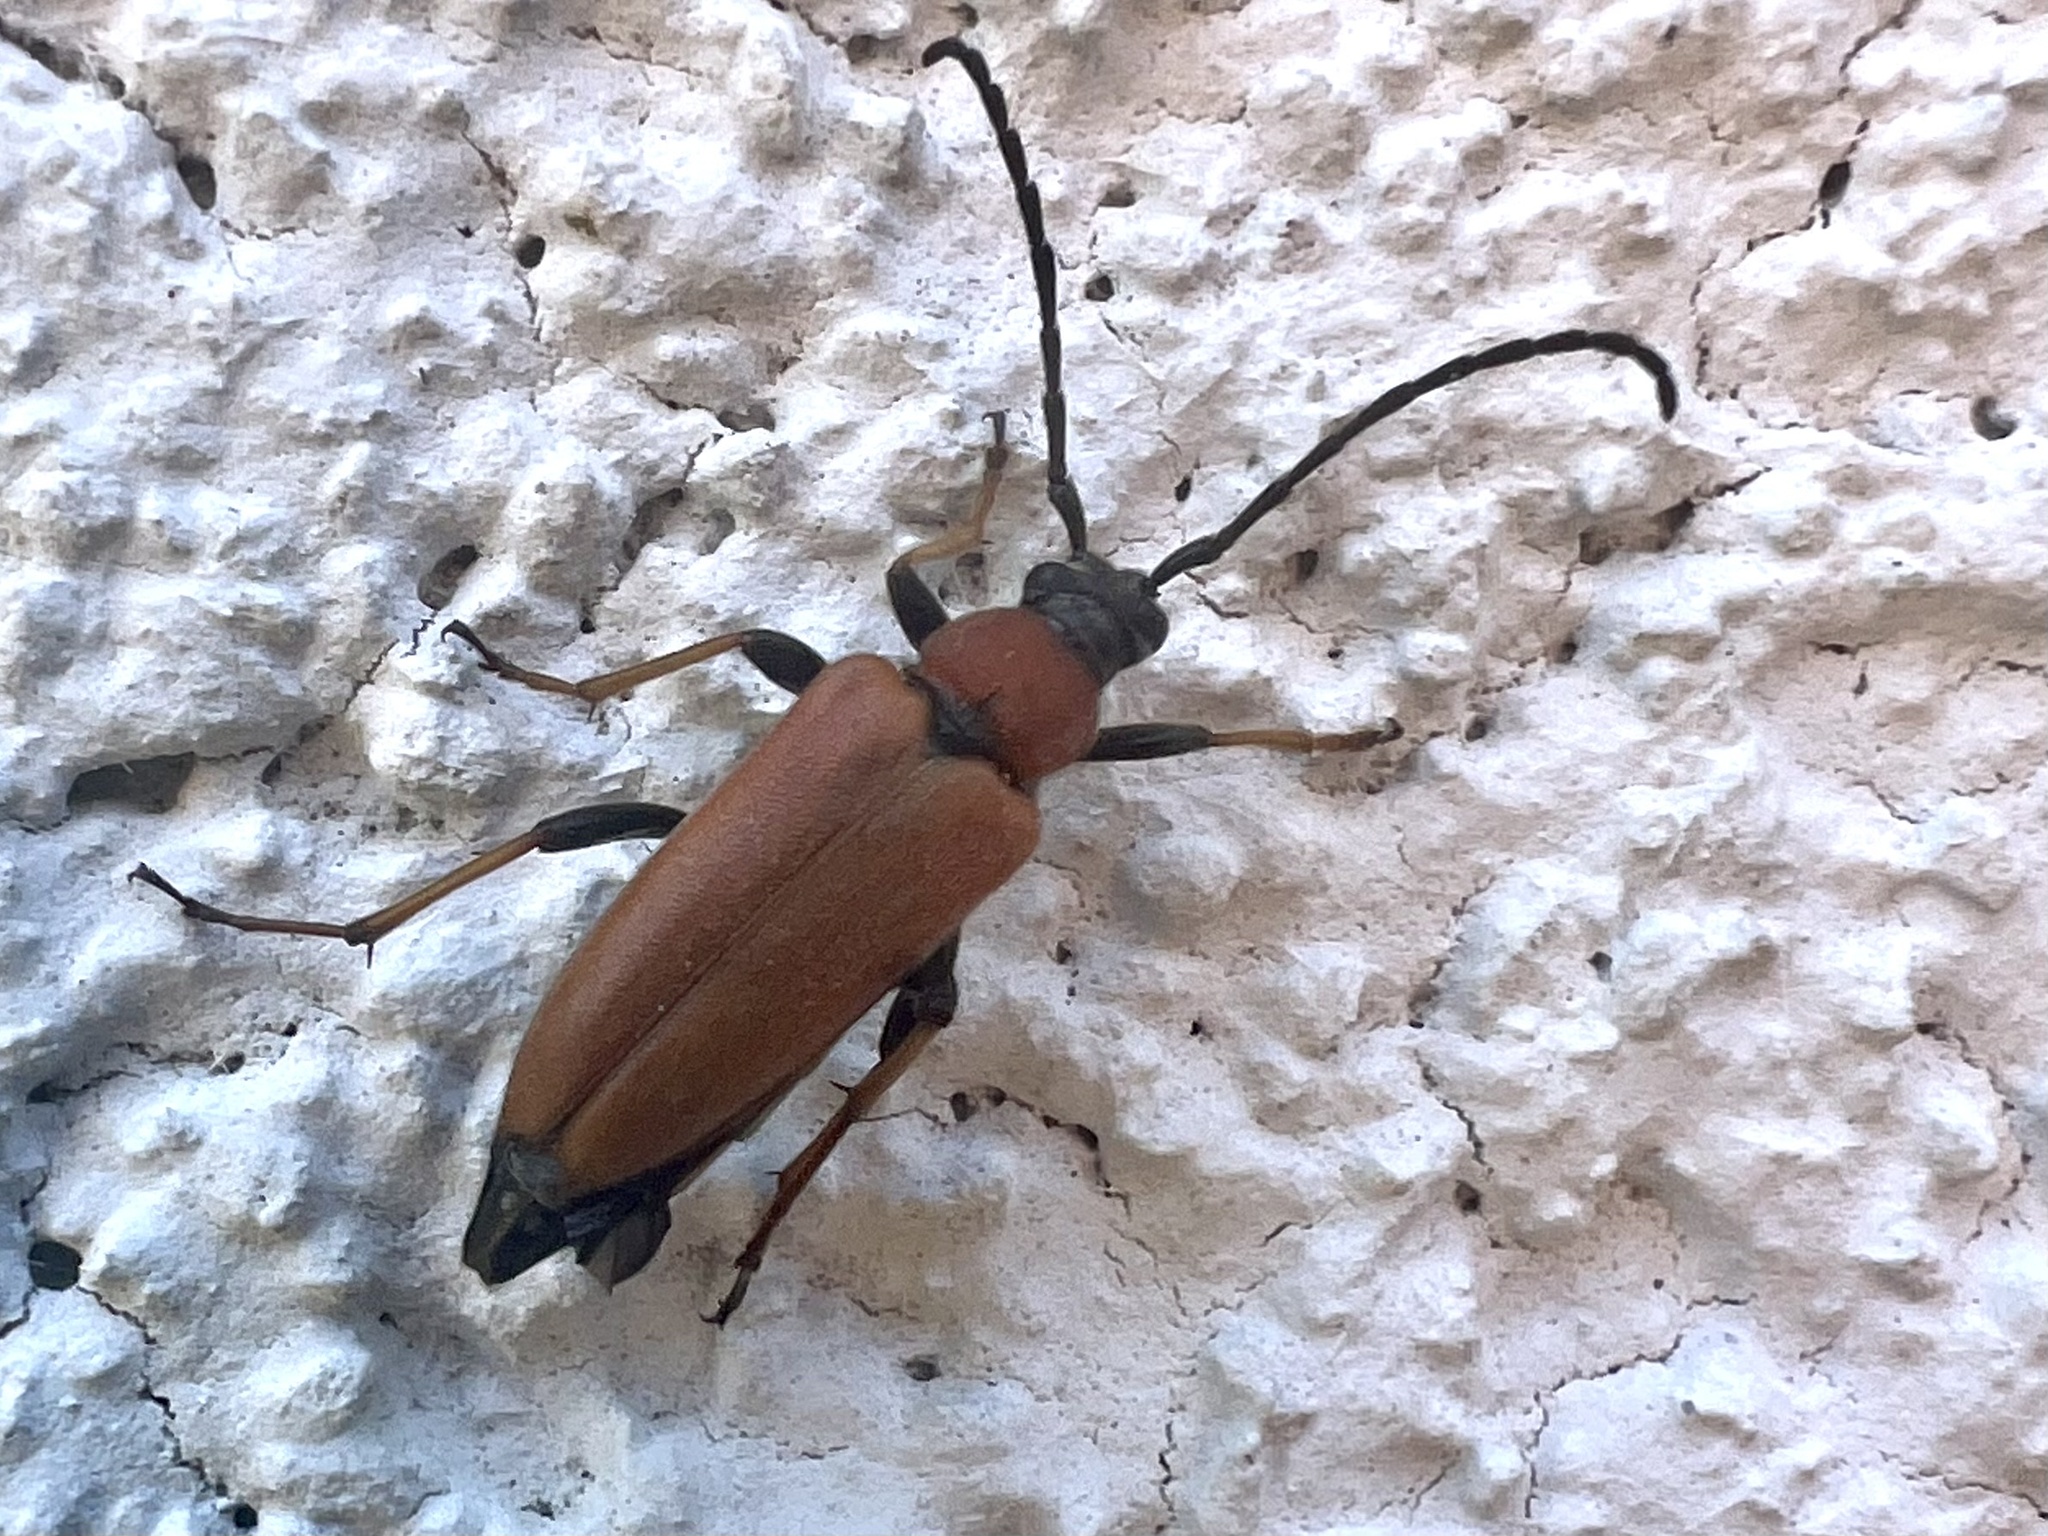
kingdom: Animalia
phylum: Arthropoda
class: Insecta
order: Coleoptera
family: Cerambycidae
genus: Stictoleptura
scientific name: Stictoleptura rubra
